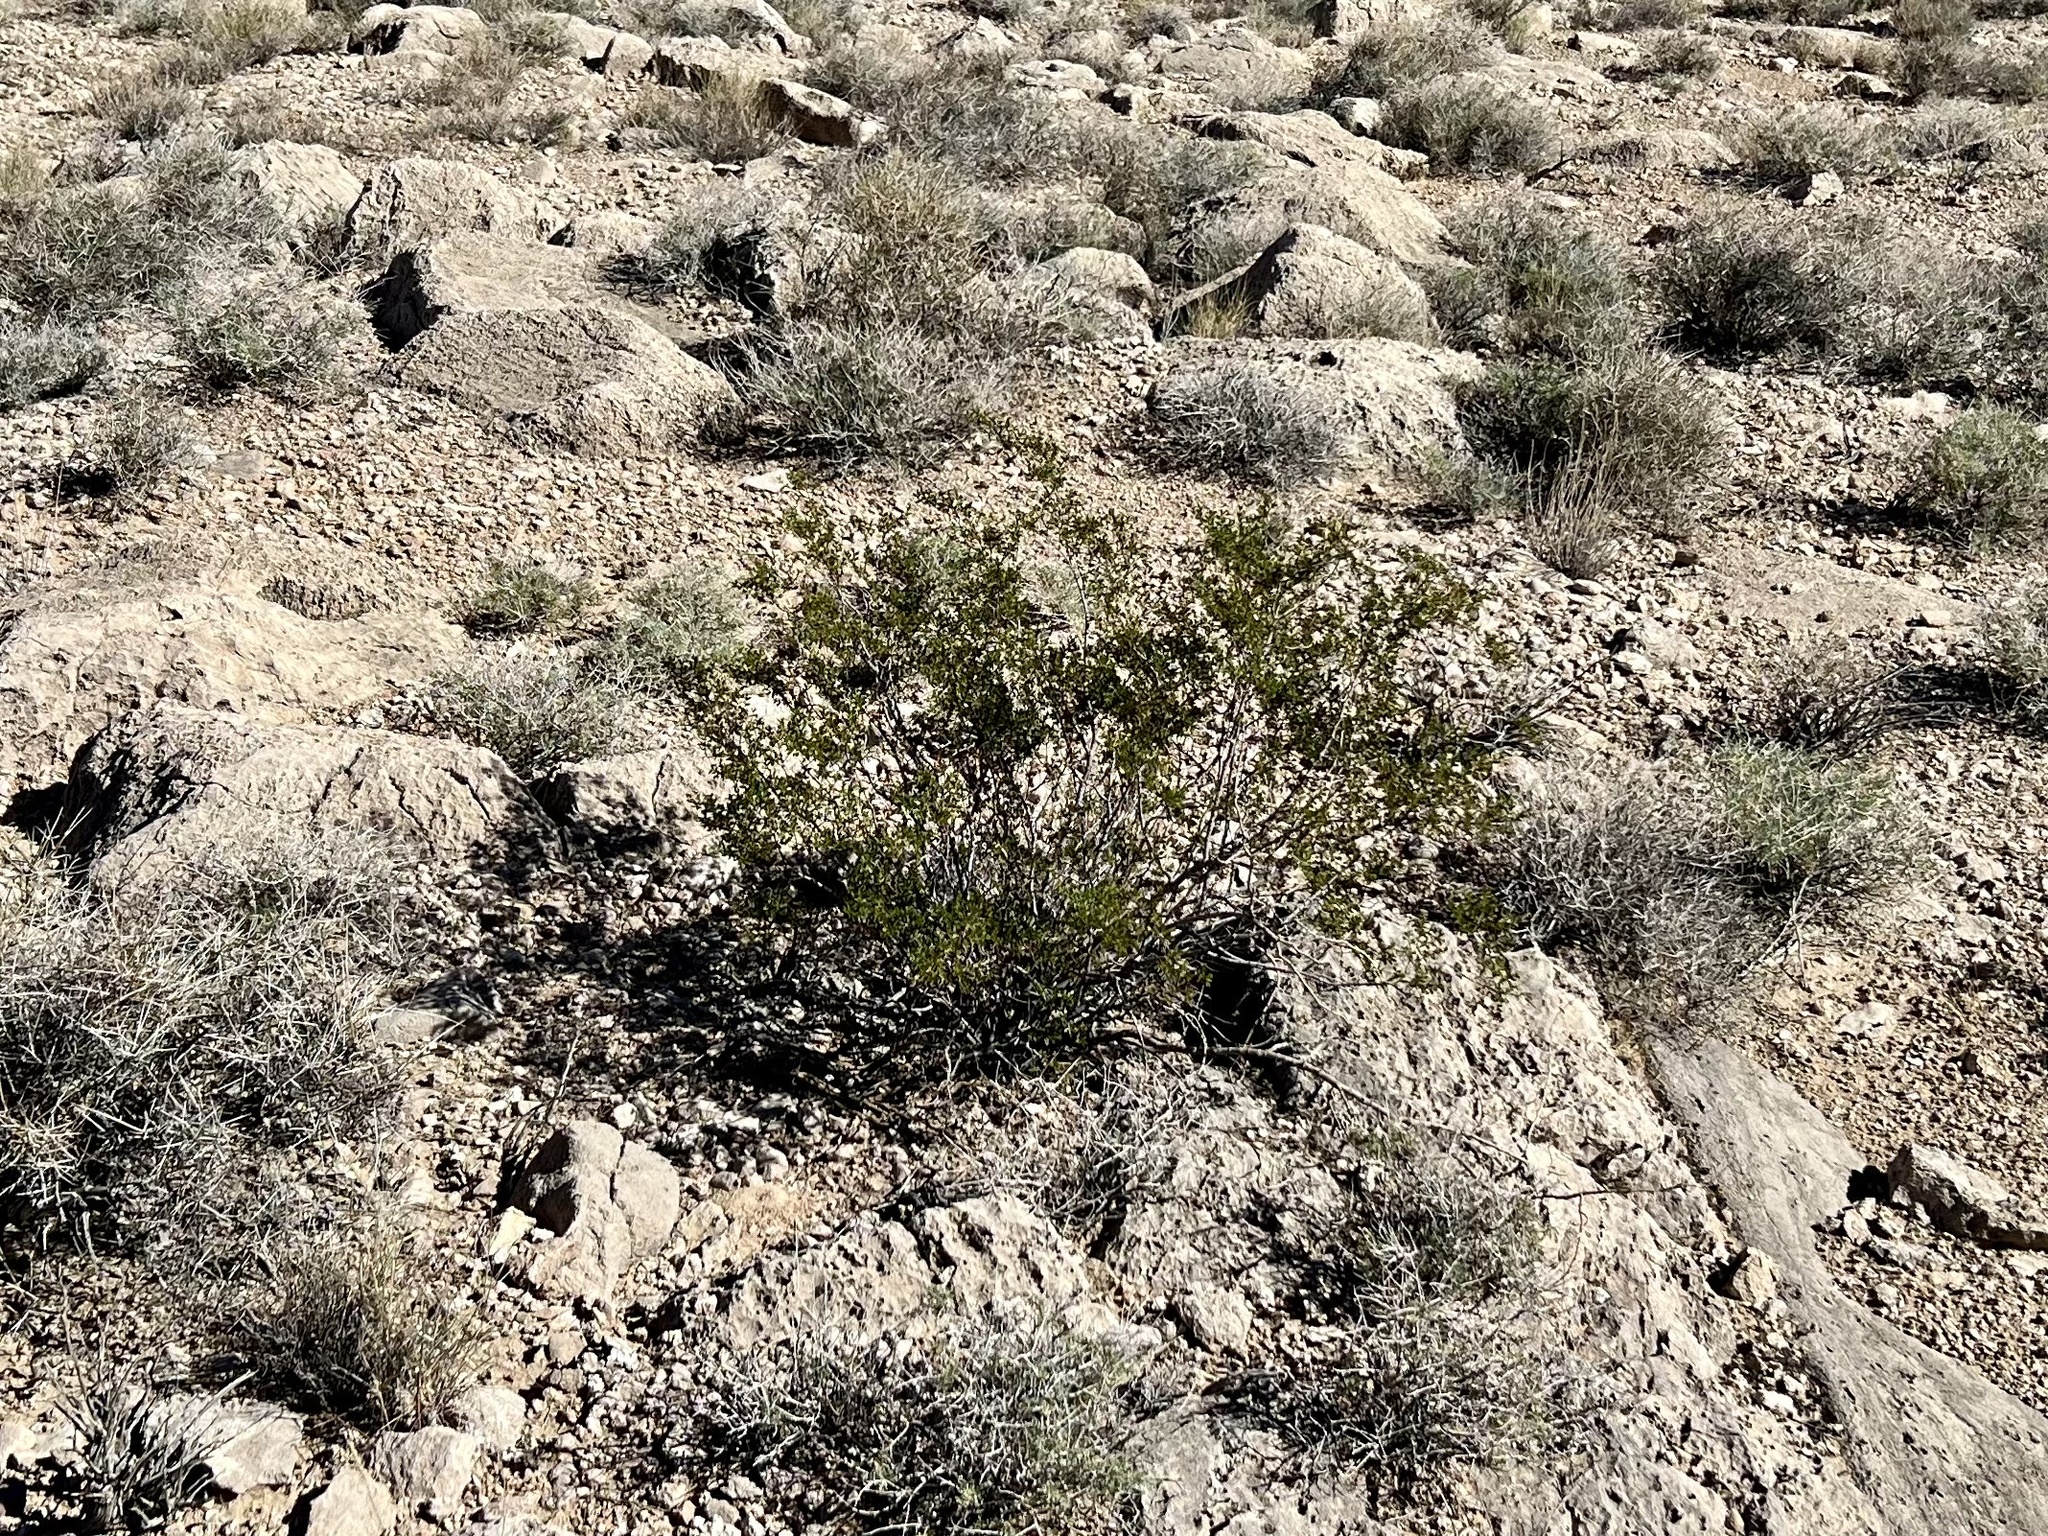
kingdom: Plantae
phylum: Tracheophyta
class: Magnoliopsida
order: Zygophyllales
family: Zygophyllaceae
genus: Larrea
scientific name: Larrea tridentata
